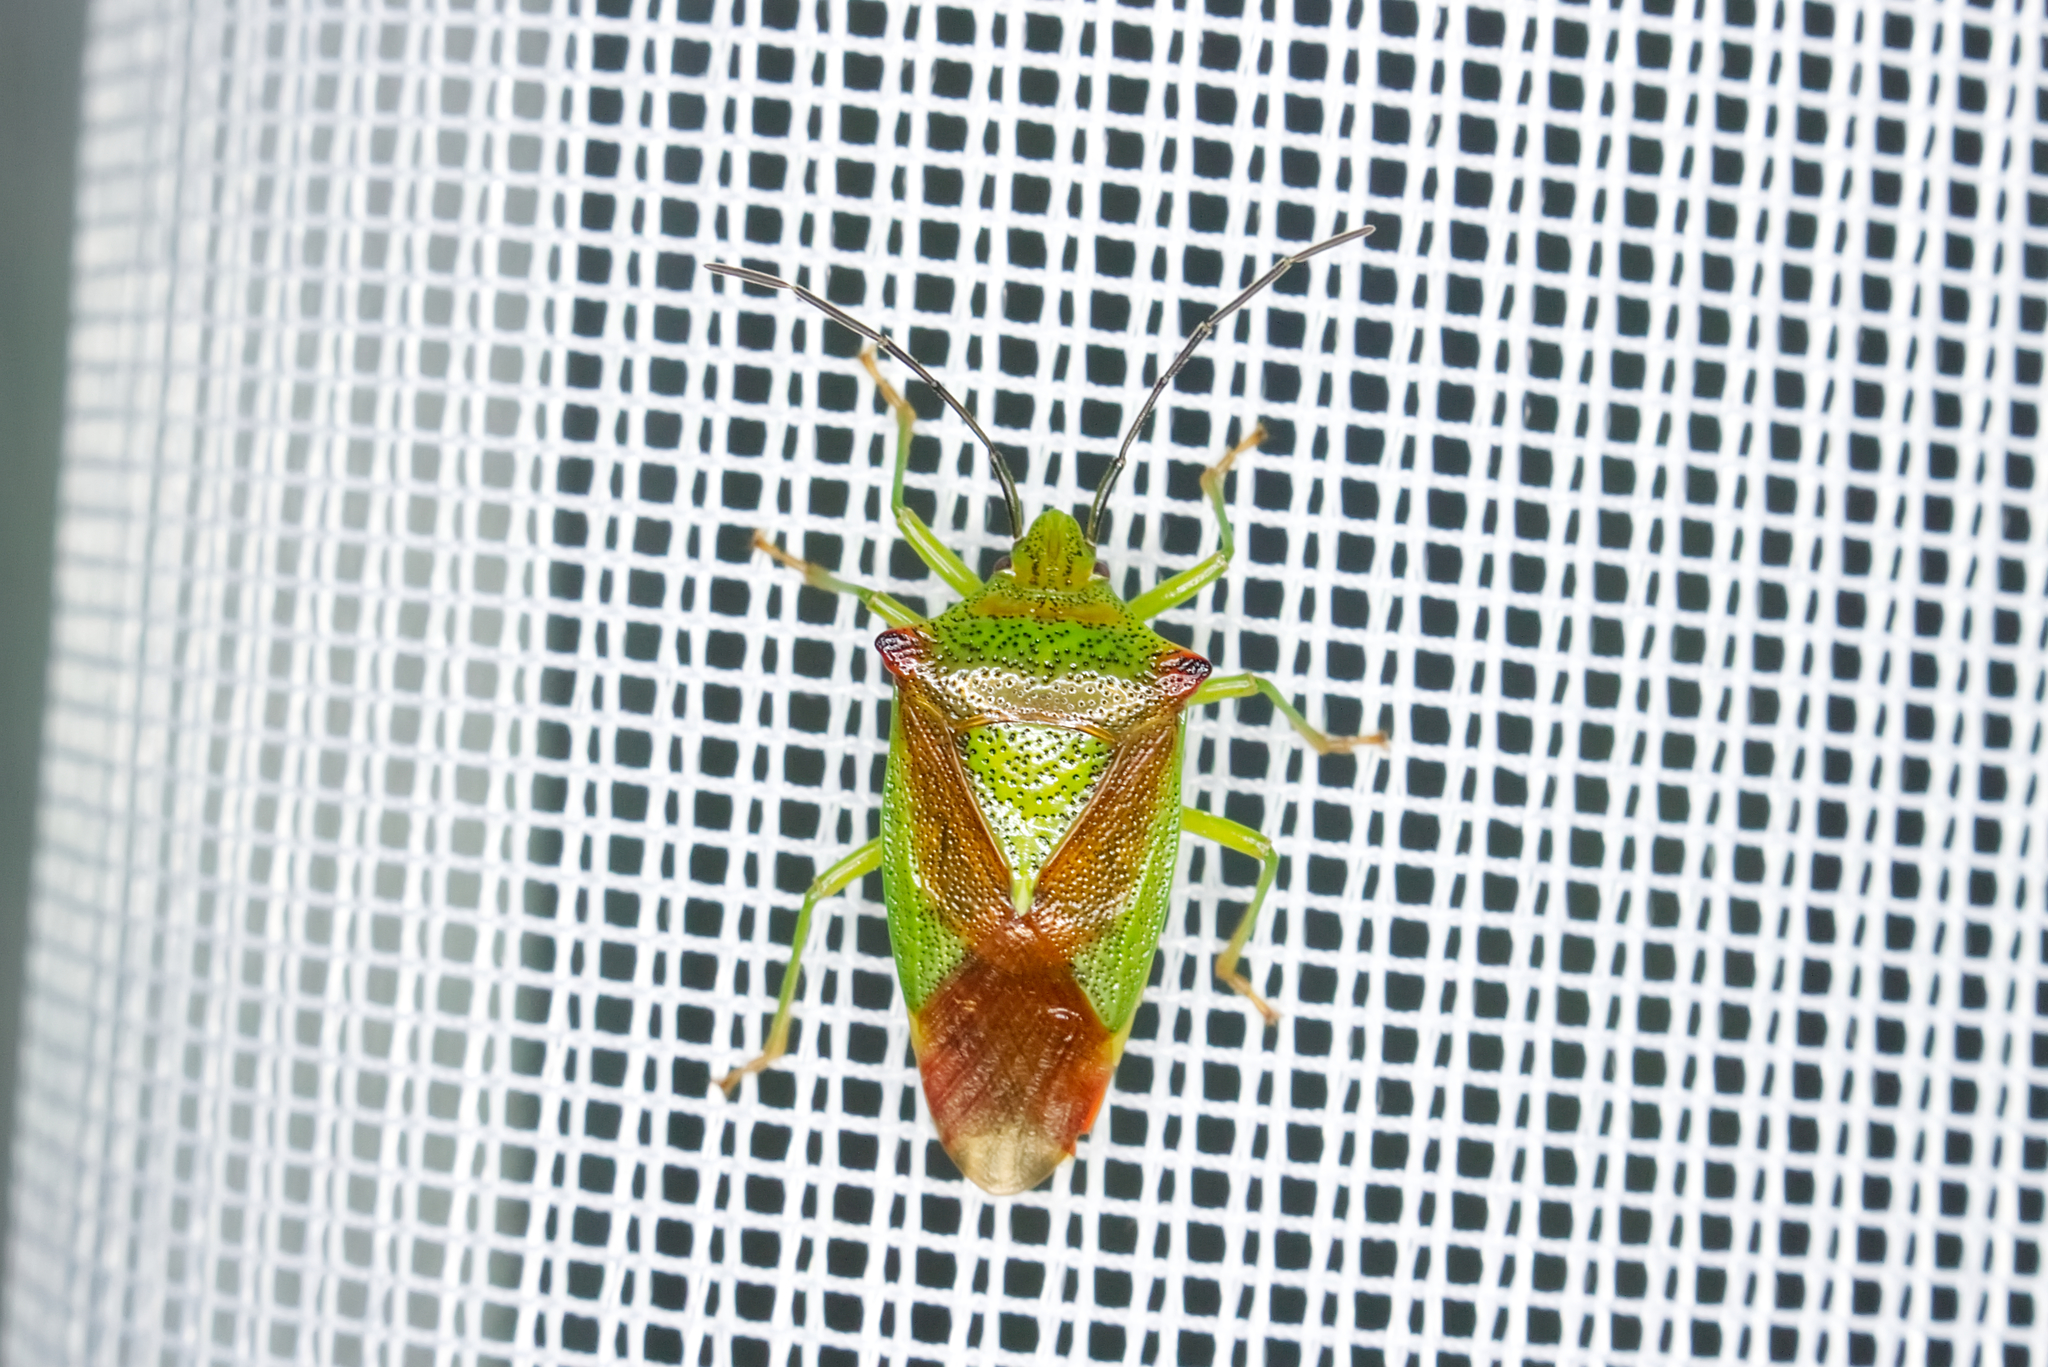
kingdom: Animalia
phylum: Arthropoda
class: Insecta
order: Hemiptera
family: Acanthosomatidae
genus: Acanthosoma
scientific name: Acanthosoma haemorrhoidale
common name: Hawthorn shieldbug
